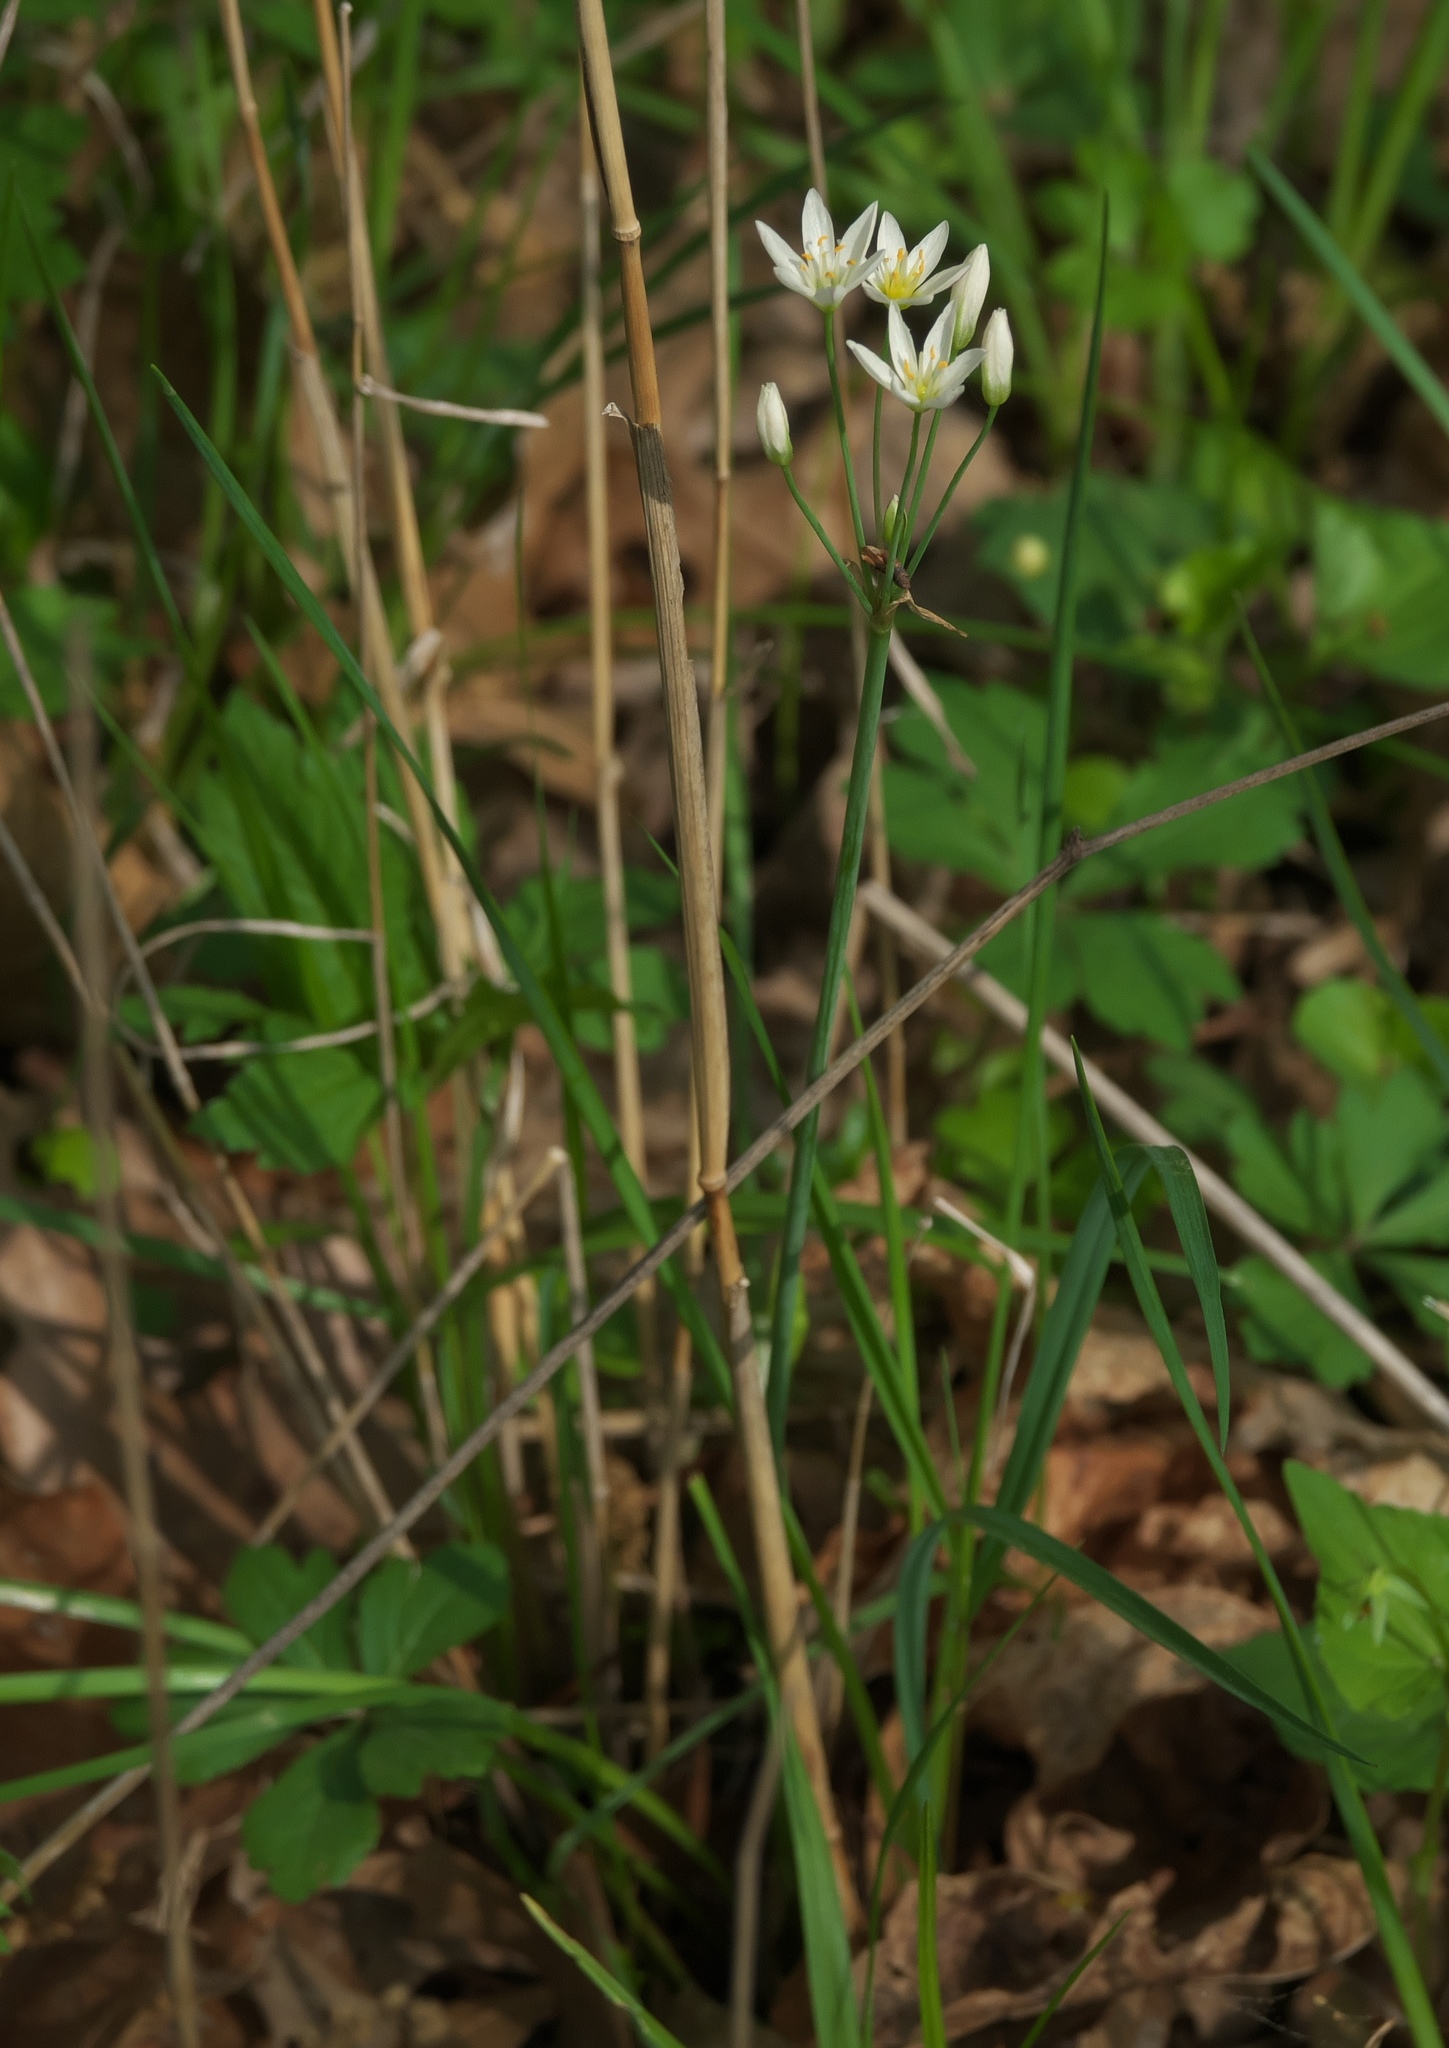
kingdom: Plantae
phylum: Tracheophyta
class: Liliopsida
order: Asparagales
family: Amaryllidaceae
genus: Nothoscordum
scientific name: Nothoscordum bivalve
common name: Crow-poison
